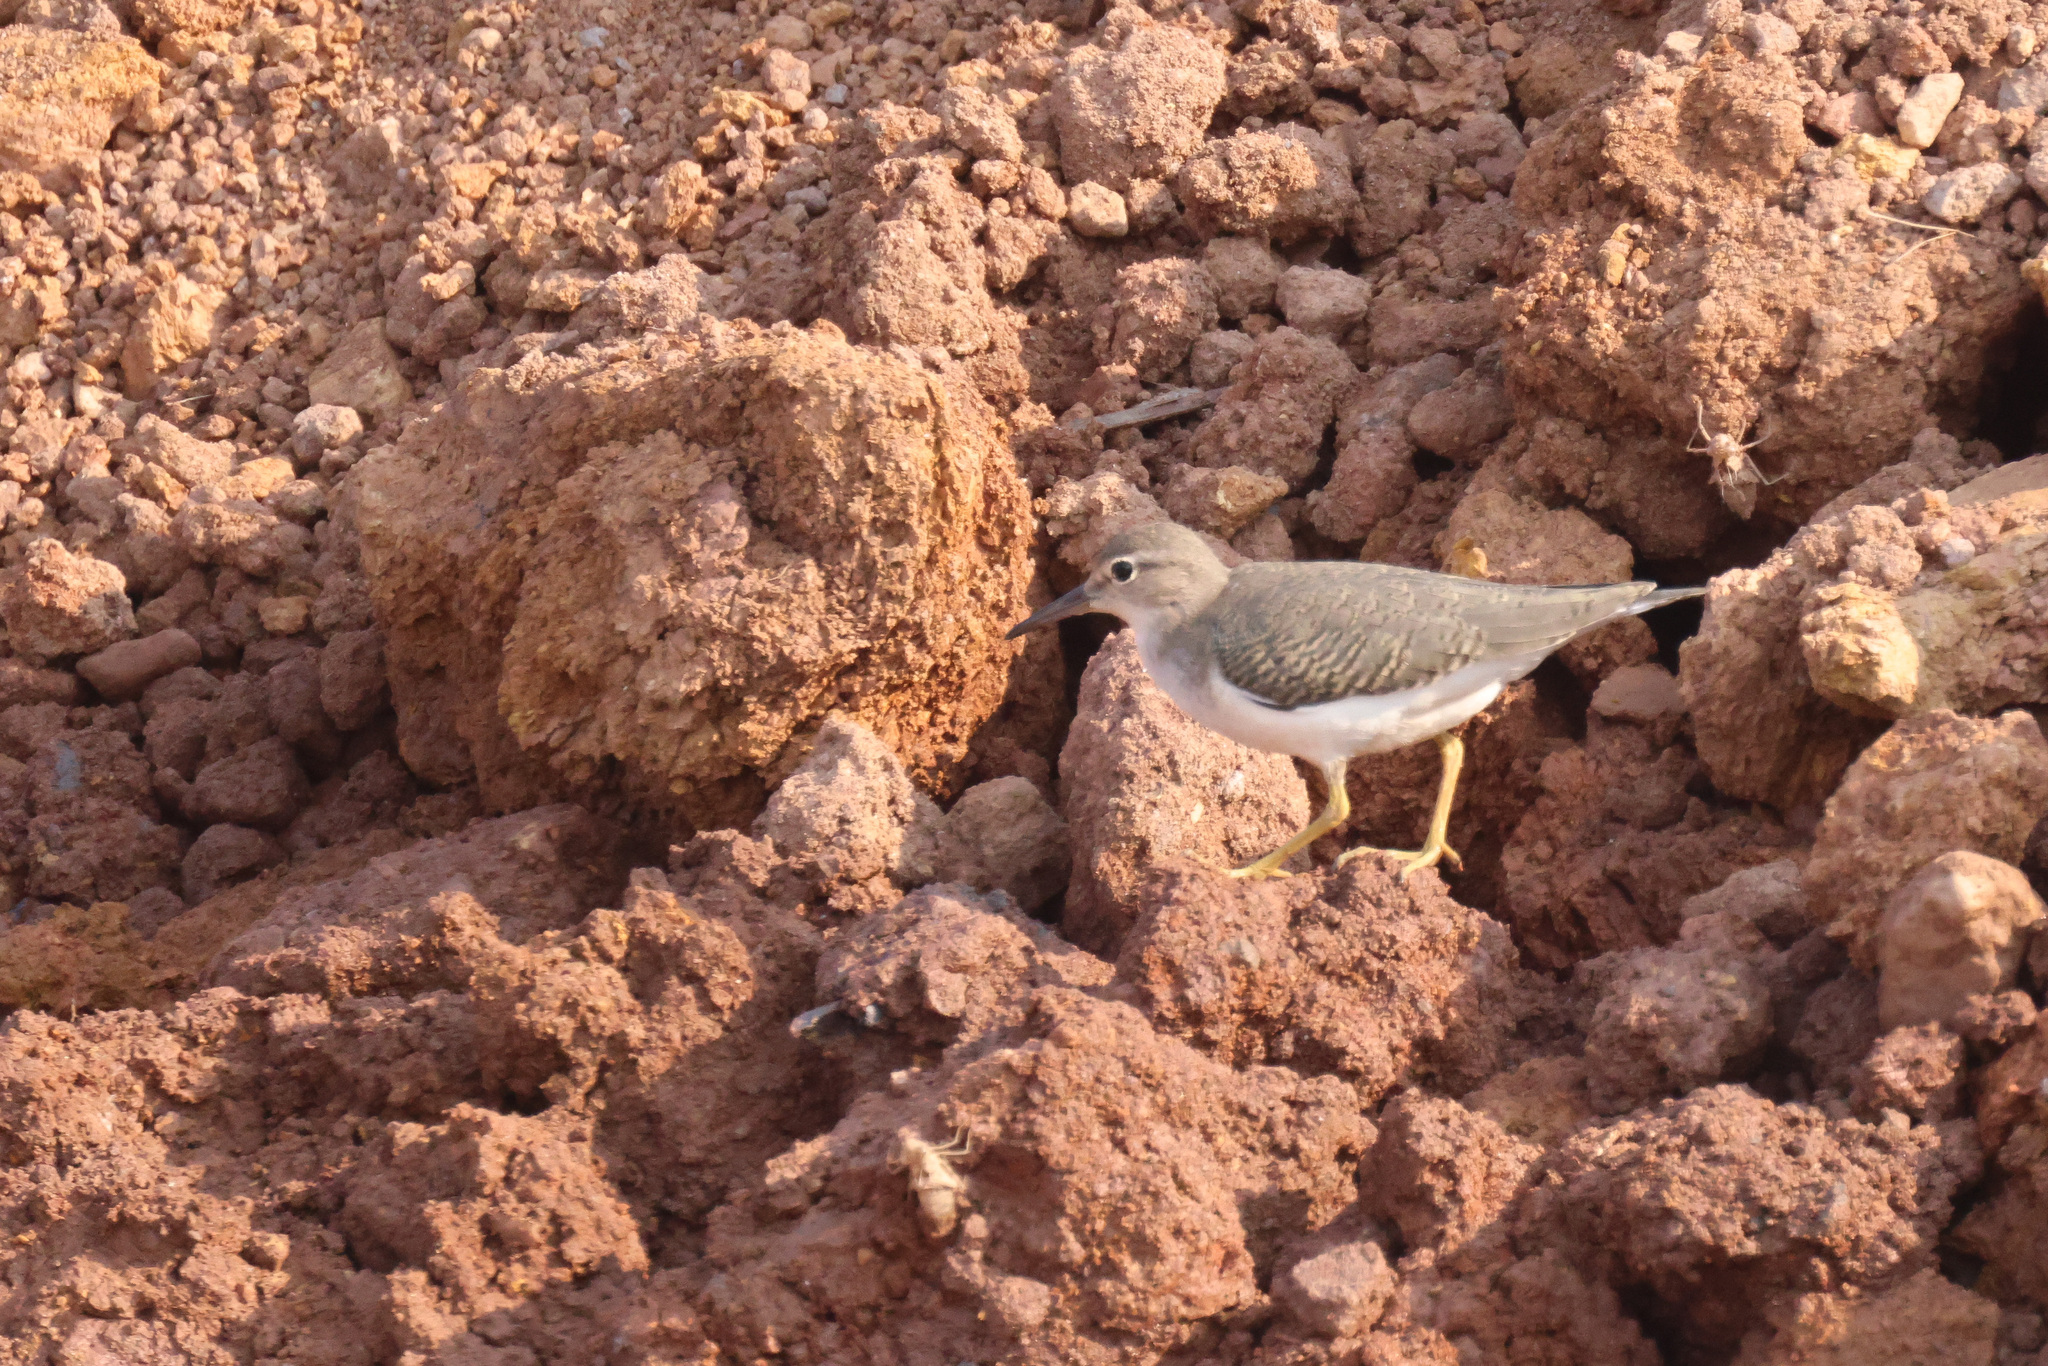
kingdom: Animalia
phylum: Chordata
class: Aves
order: Charadriiformes
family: Scolopacidae
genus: Actitis
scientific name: Actitis macularius
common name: Spotted sandpiper
